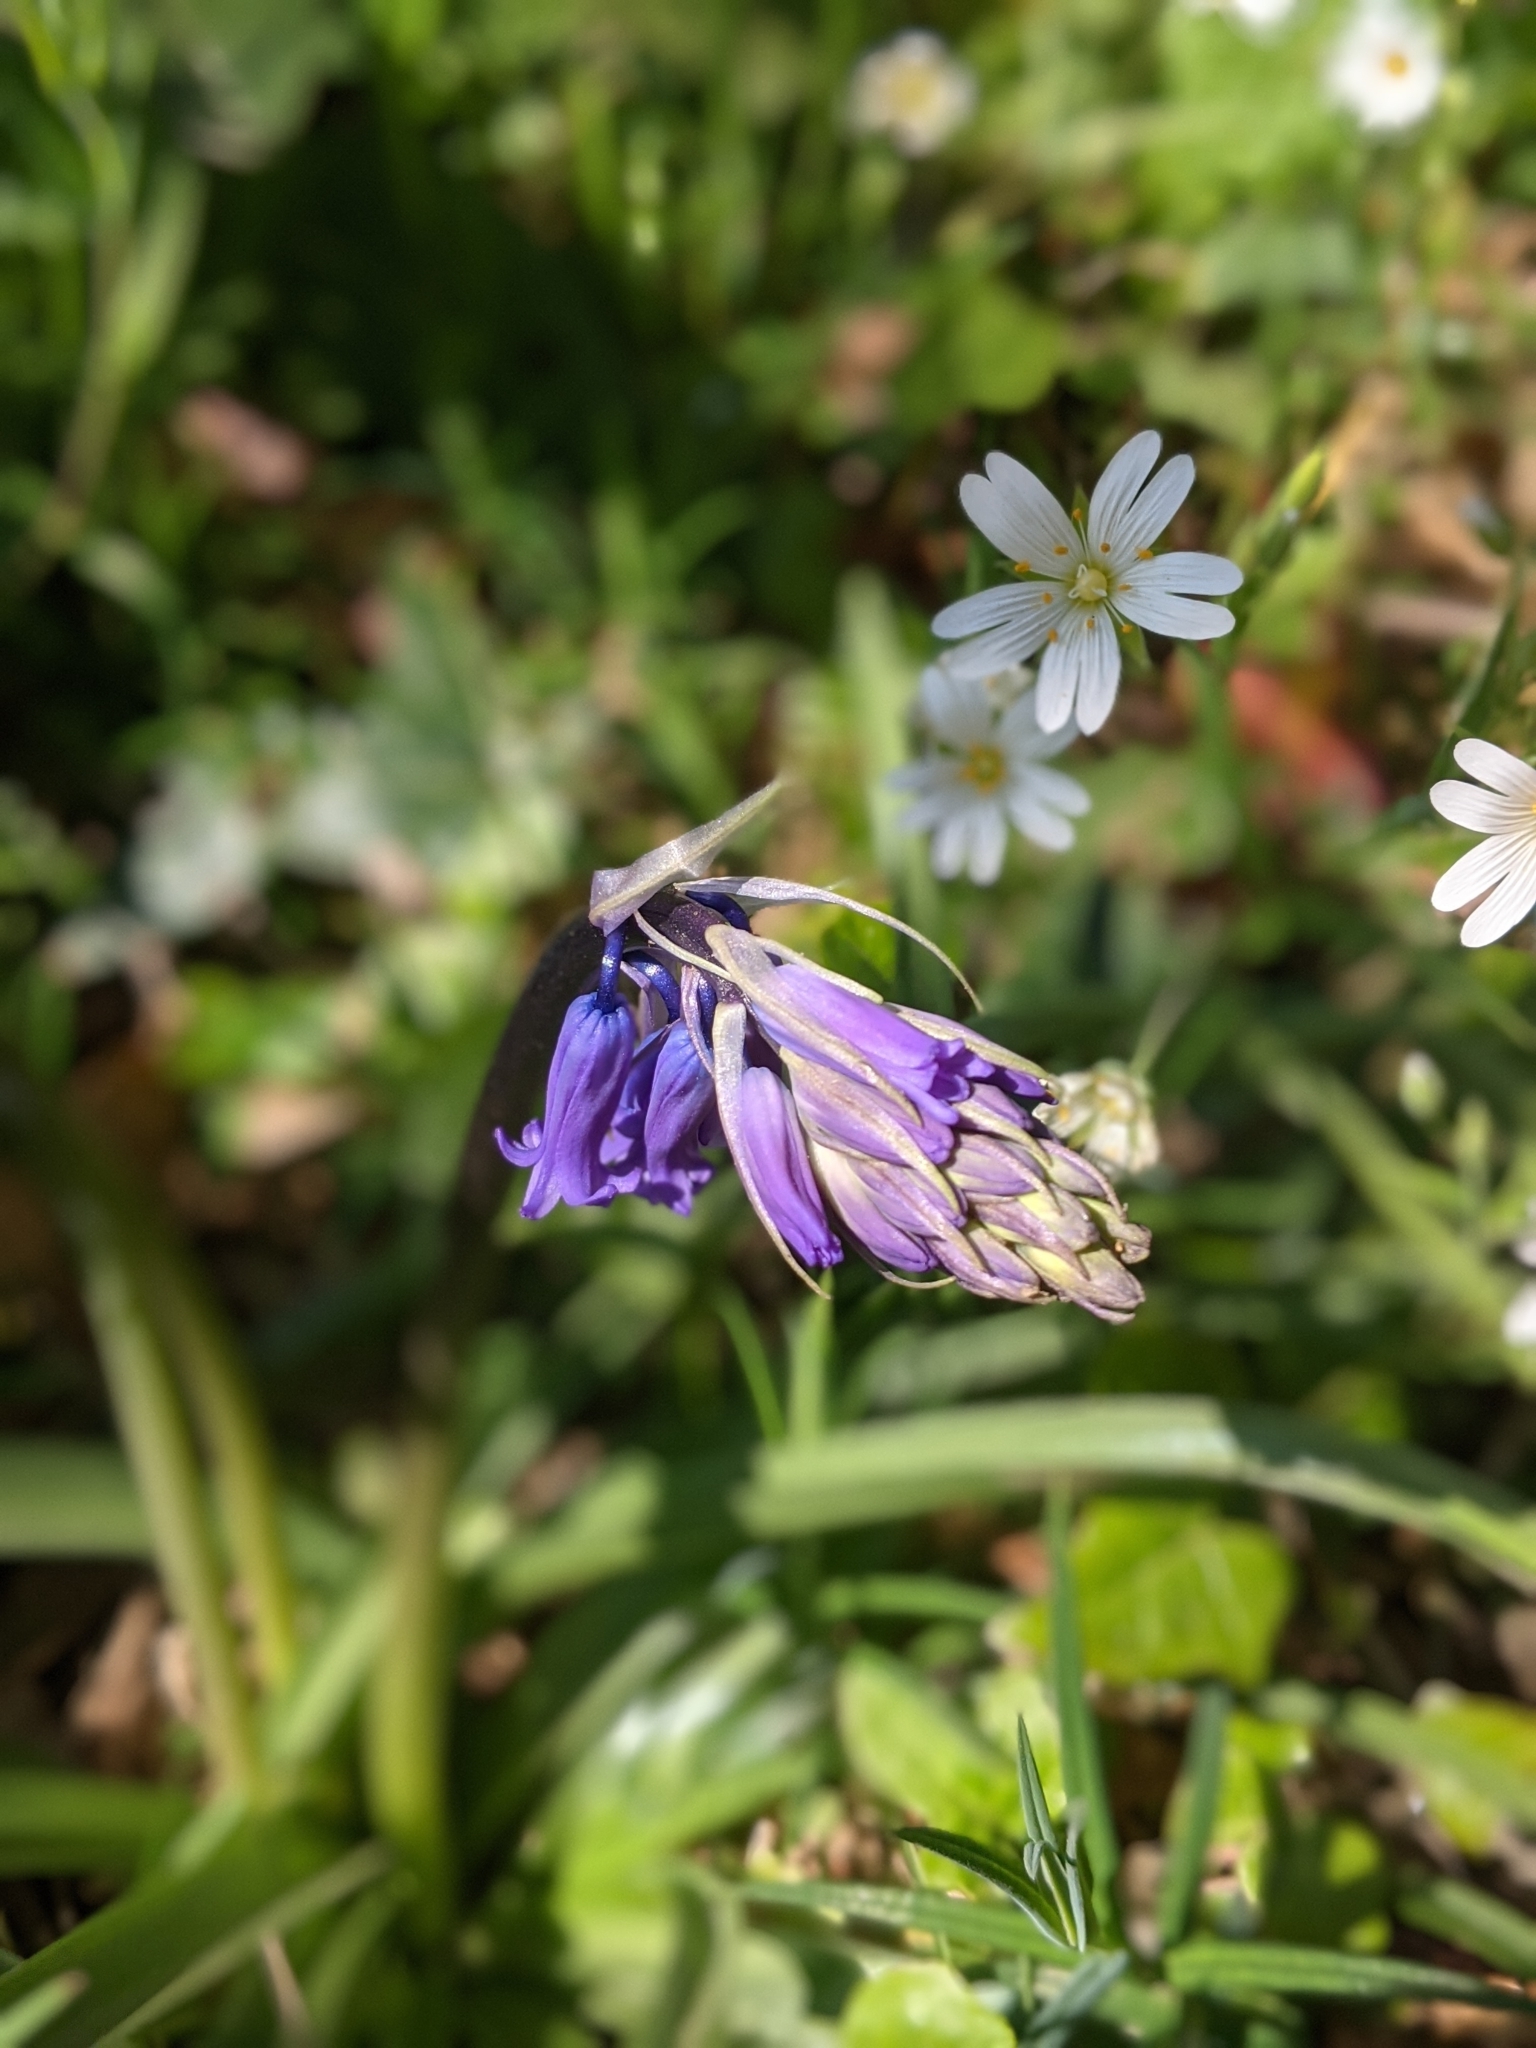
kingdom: Plantae
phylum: Tracheophyta
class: Liliopsida
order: Asparagales
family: Asparagaceae
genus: Hyacinthoides
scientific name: Hyacinthoides non-scripta
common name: Bluebell
